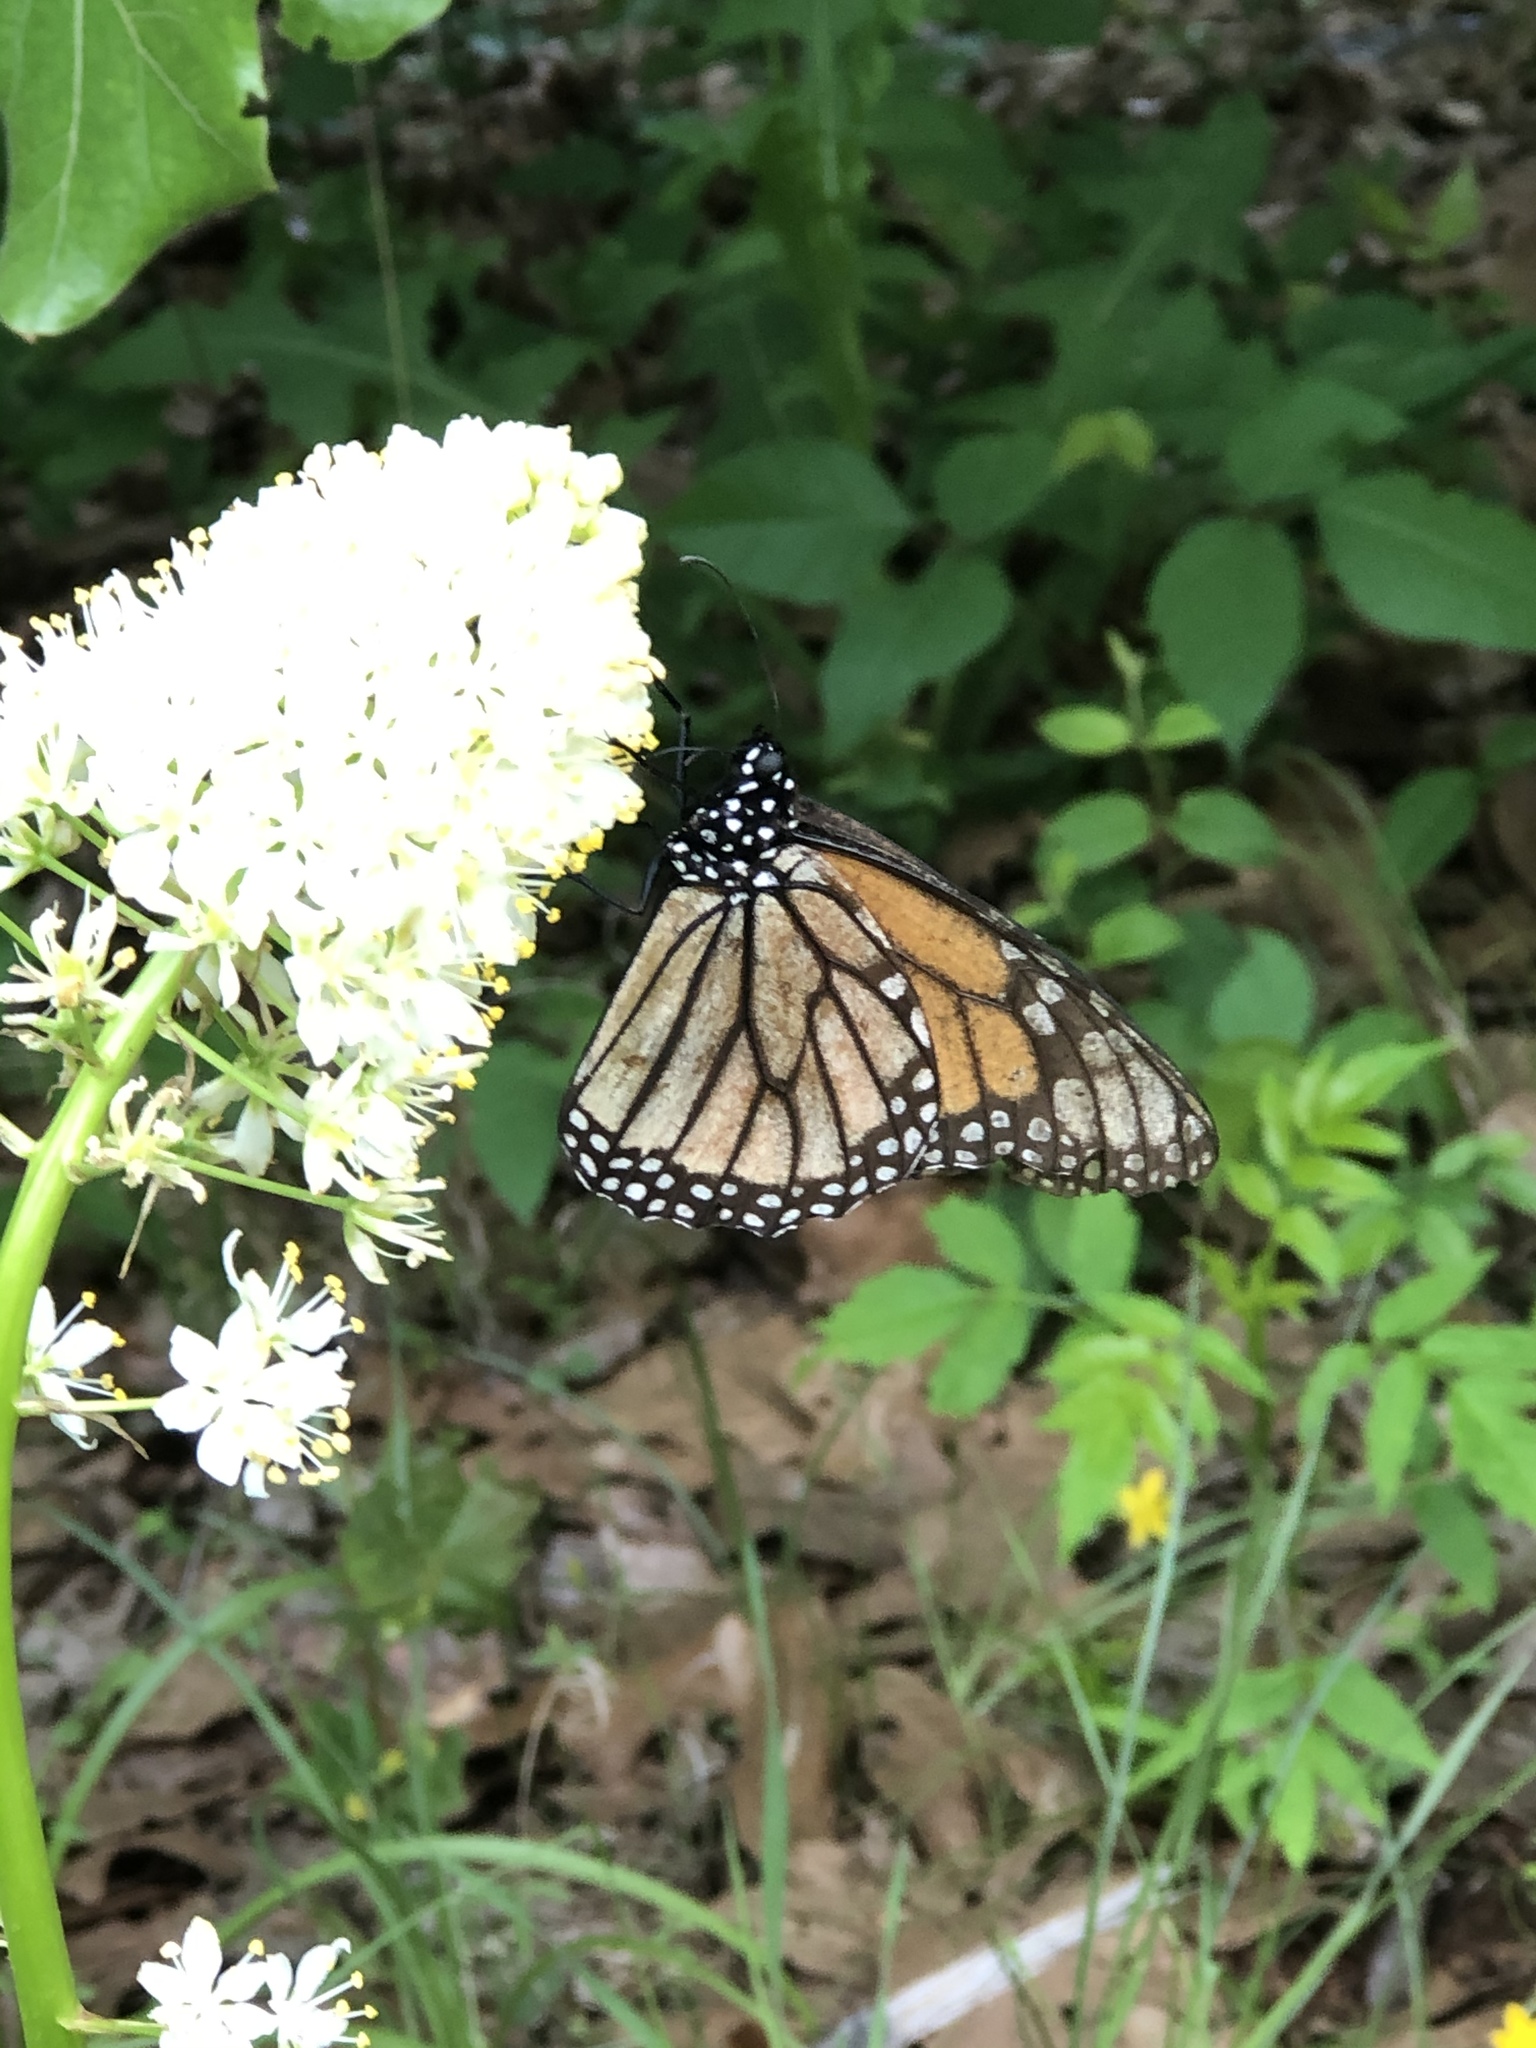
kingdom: Animalia
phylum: Arthropoda
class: Insecta
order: Lepidoptera
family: Nymphalidae
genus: Danaus
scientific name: Danaus plexippus
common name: Monarch
